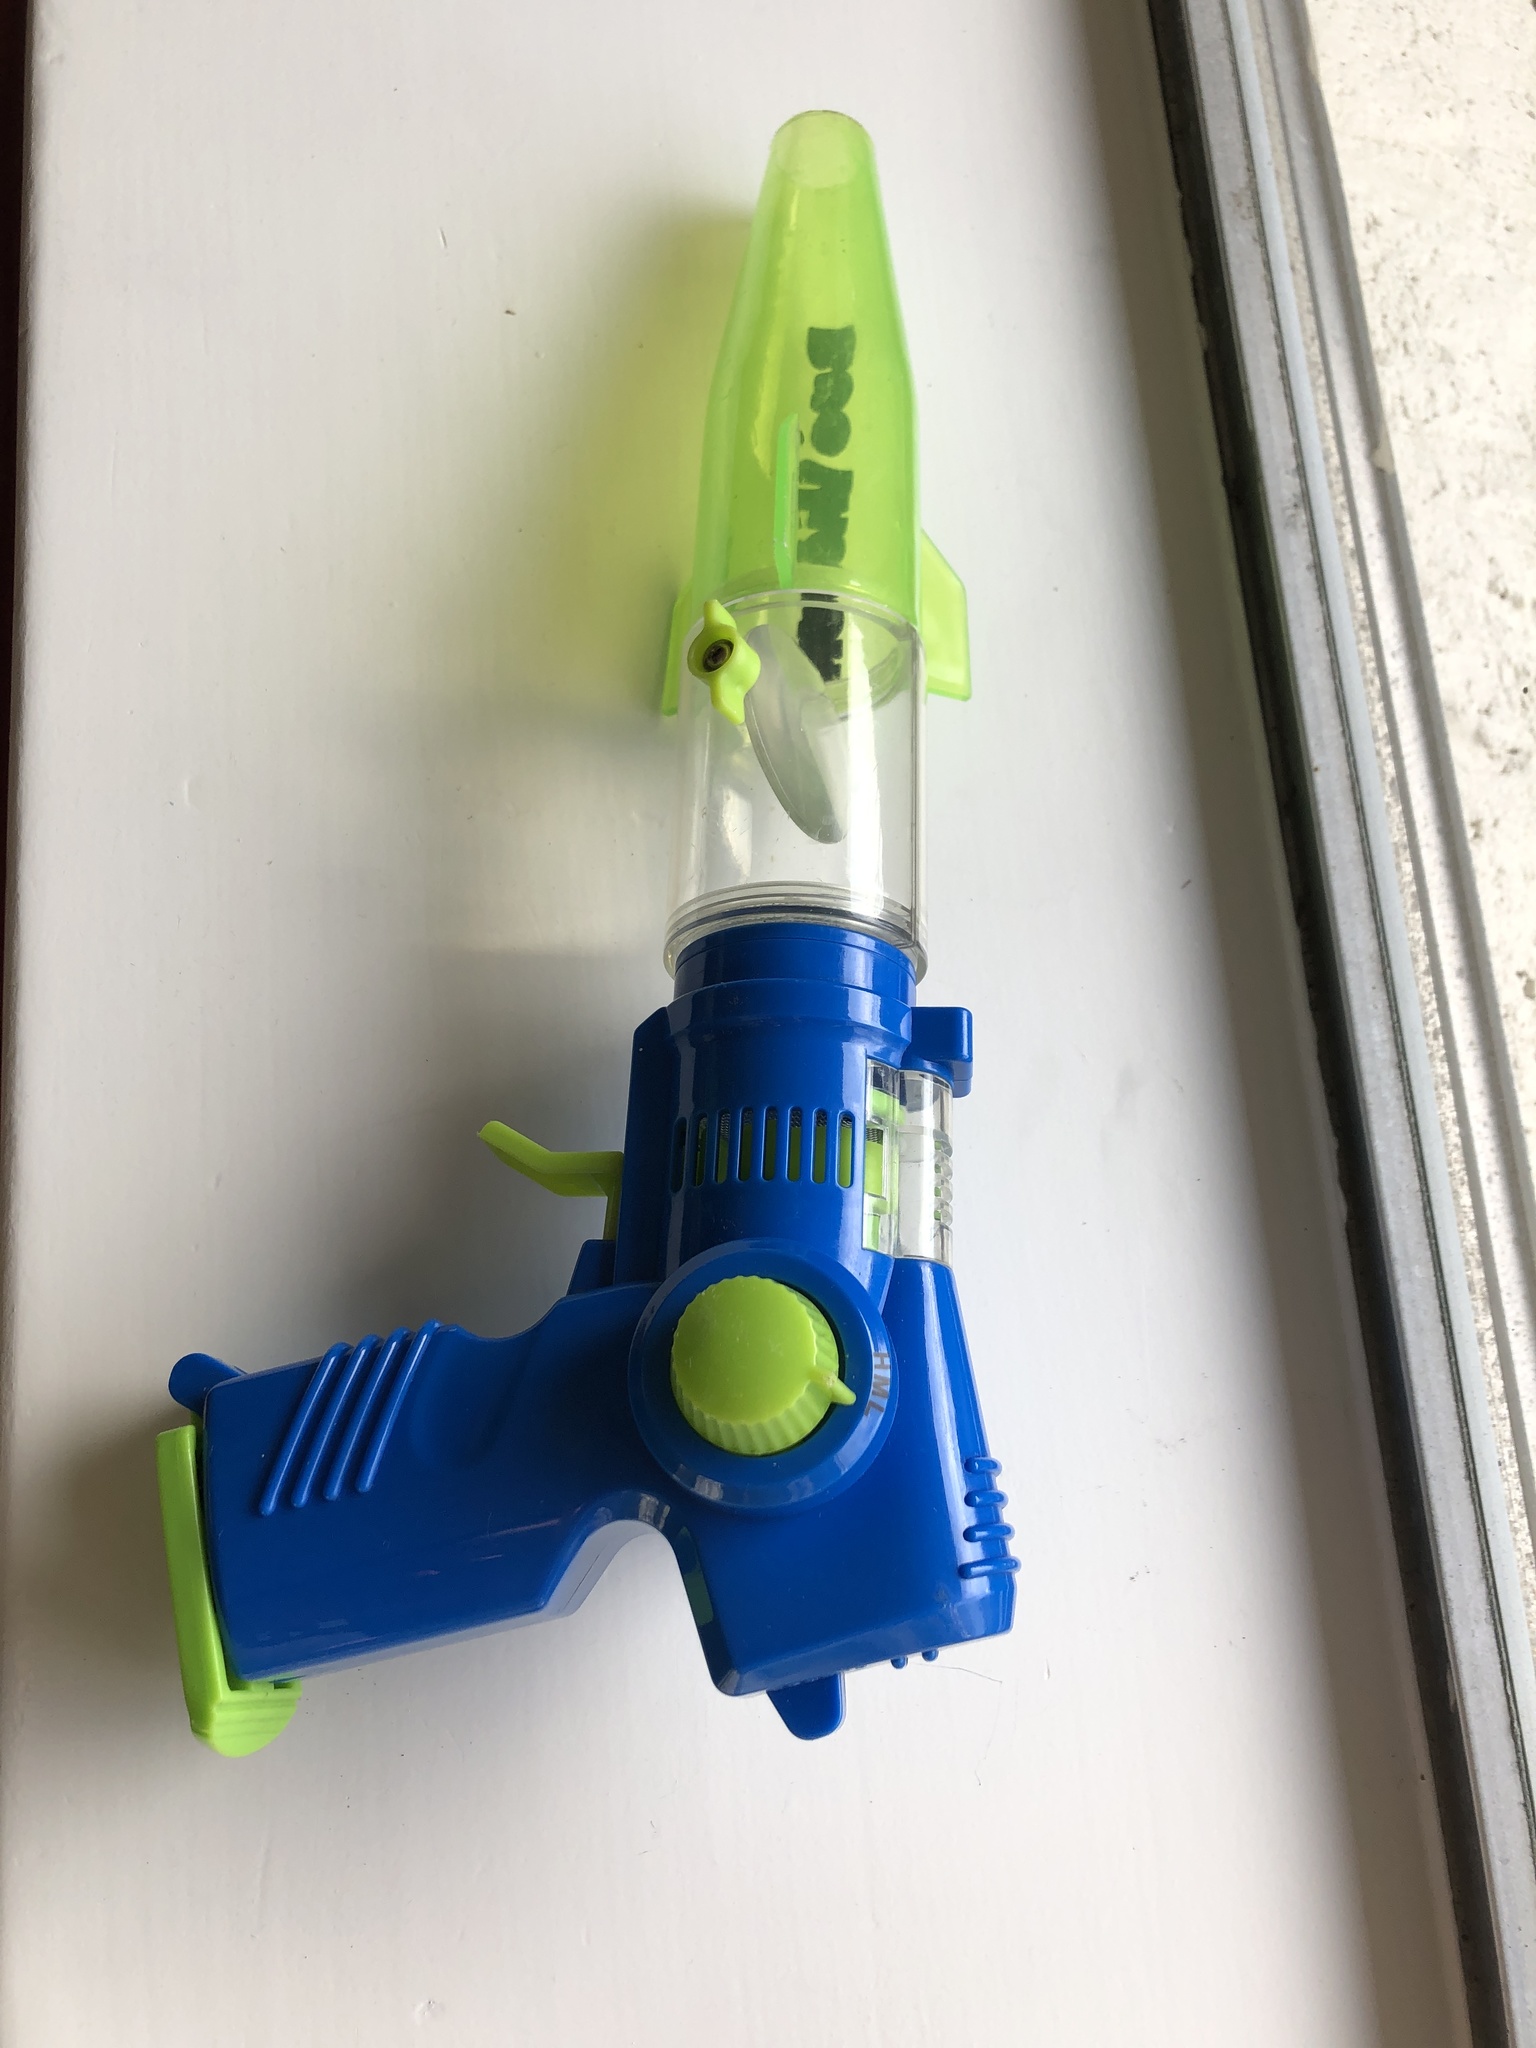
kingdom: Animalia
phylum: Arthropoda
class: Insecta
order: Hymenoptera
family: Formicidae
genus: Pseudomyrmex
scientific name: Pseudomyrmex gracilis
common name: Graceful twig ant
